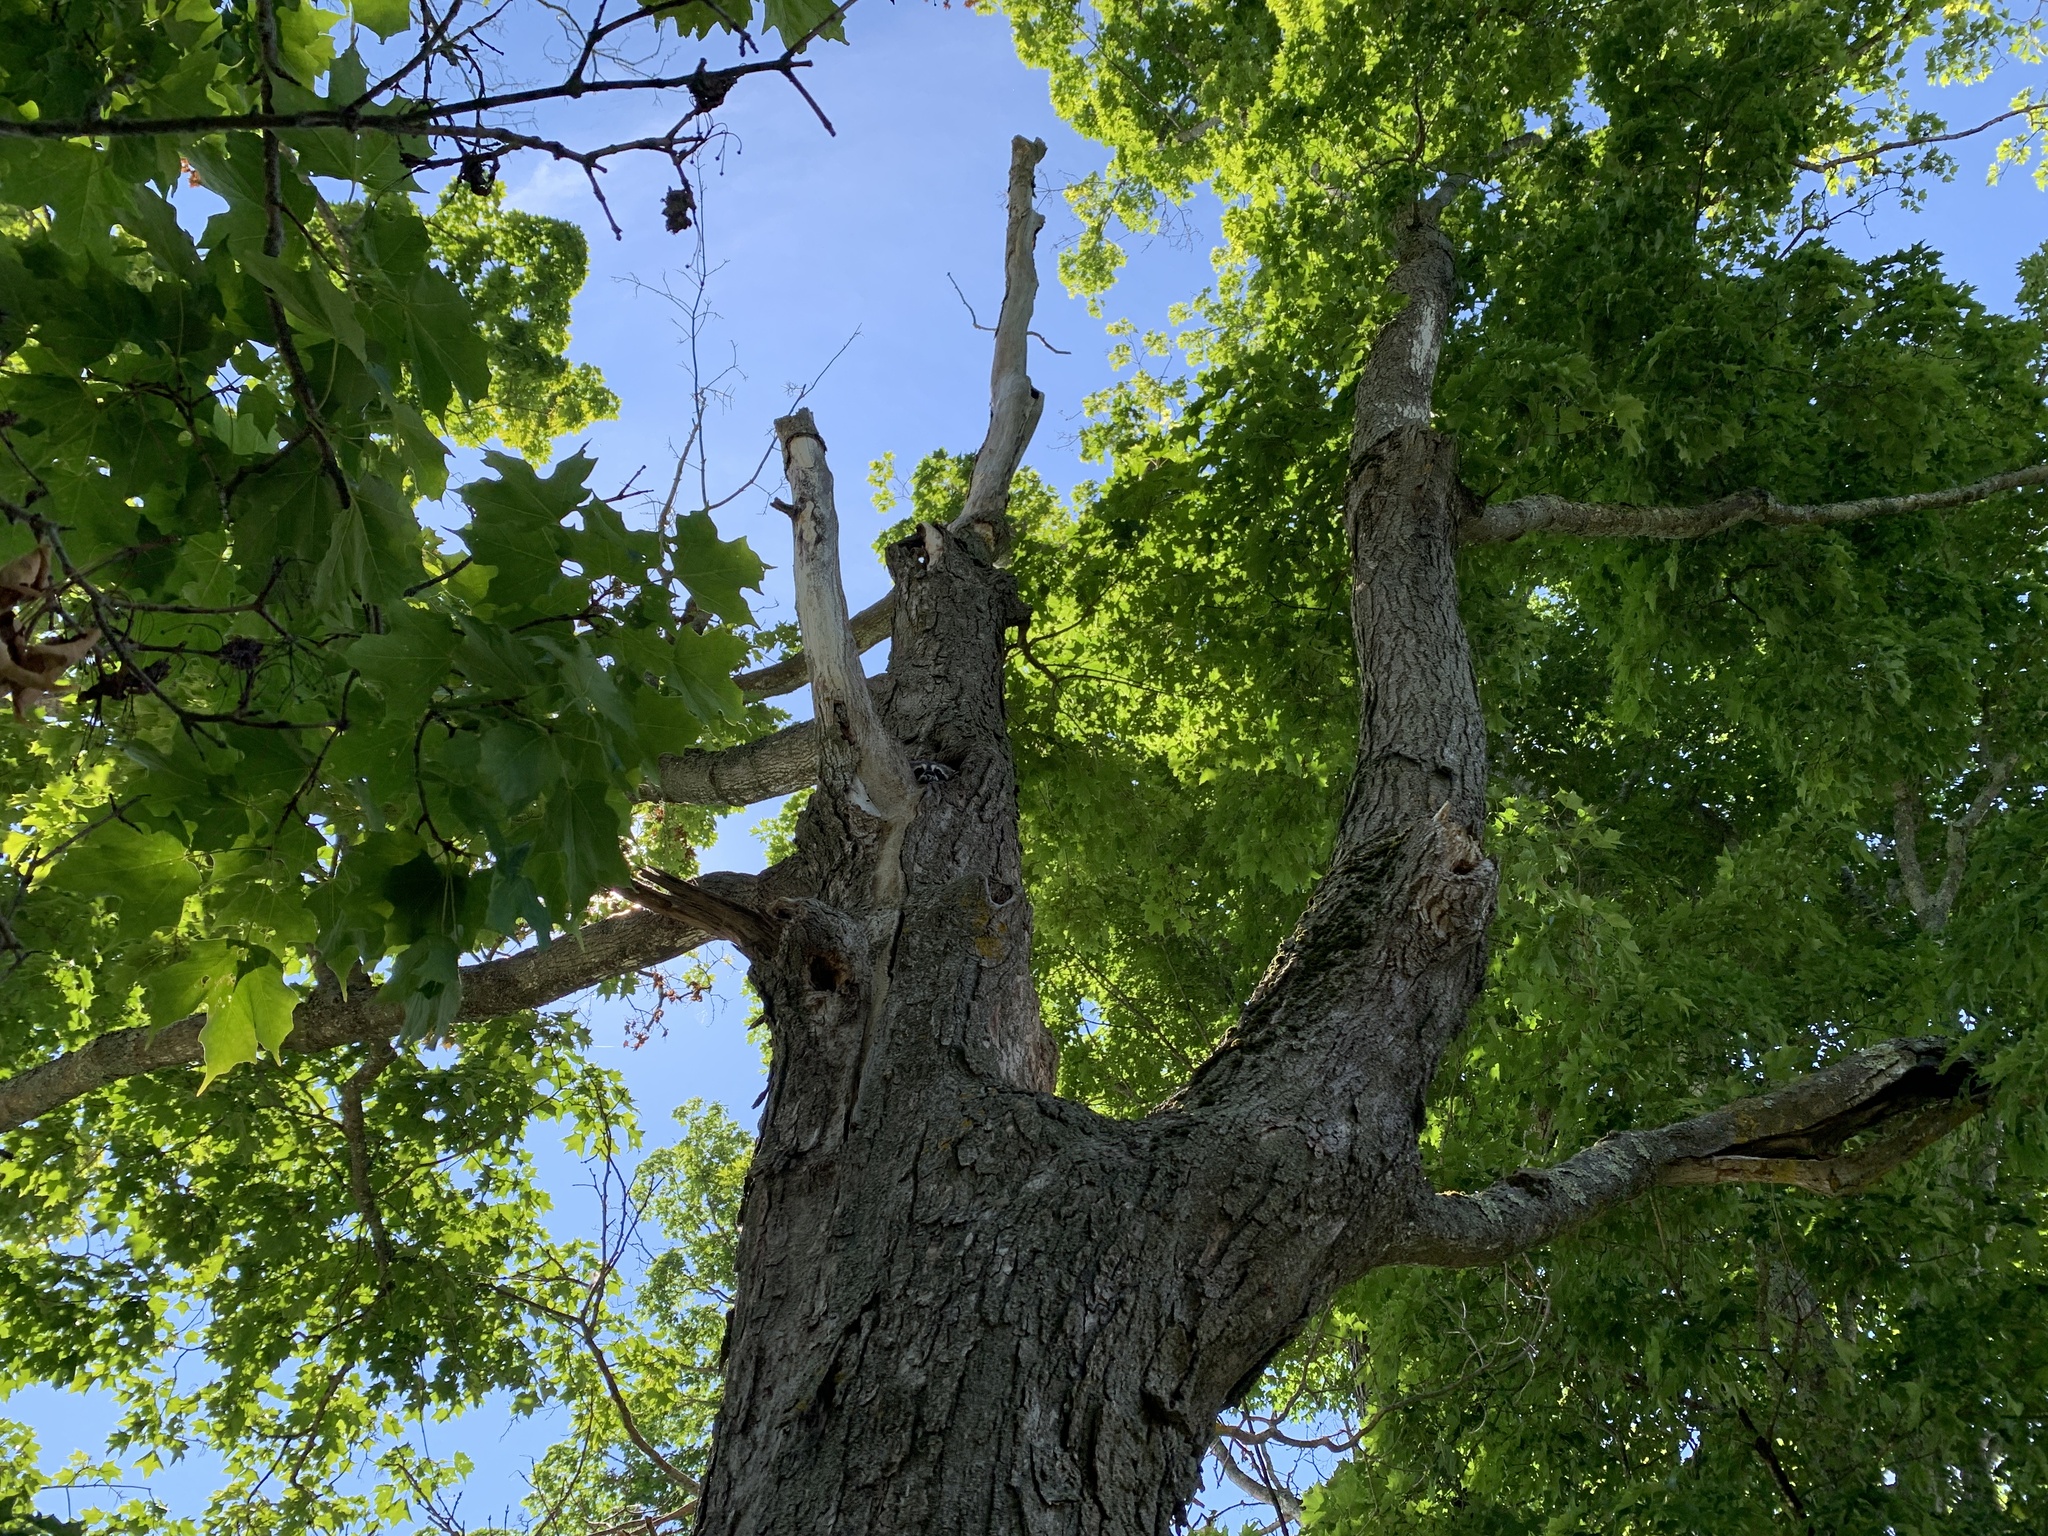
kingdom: Animalia
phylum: Chordata
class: Mammalia
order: Carnivora
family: Procyonidae
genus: Procyon
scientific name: Procyon lotor
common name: Raccoon
